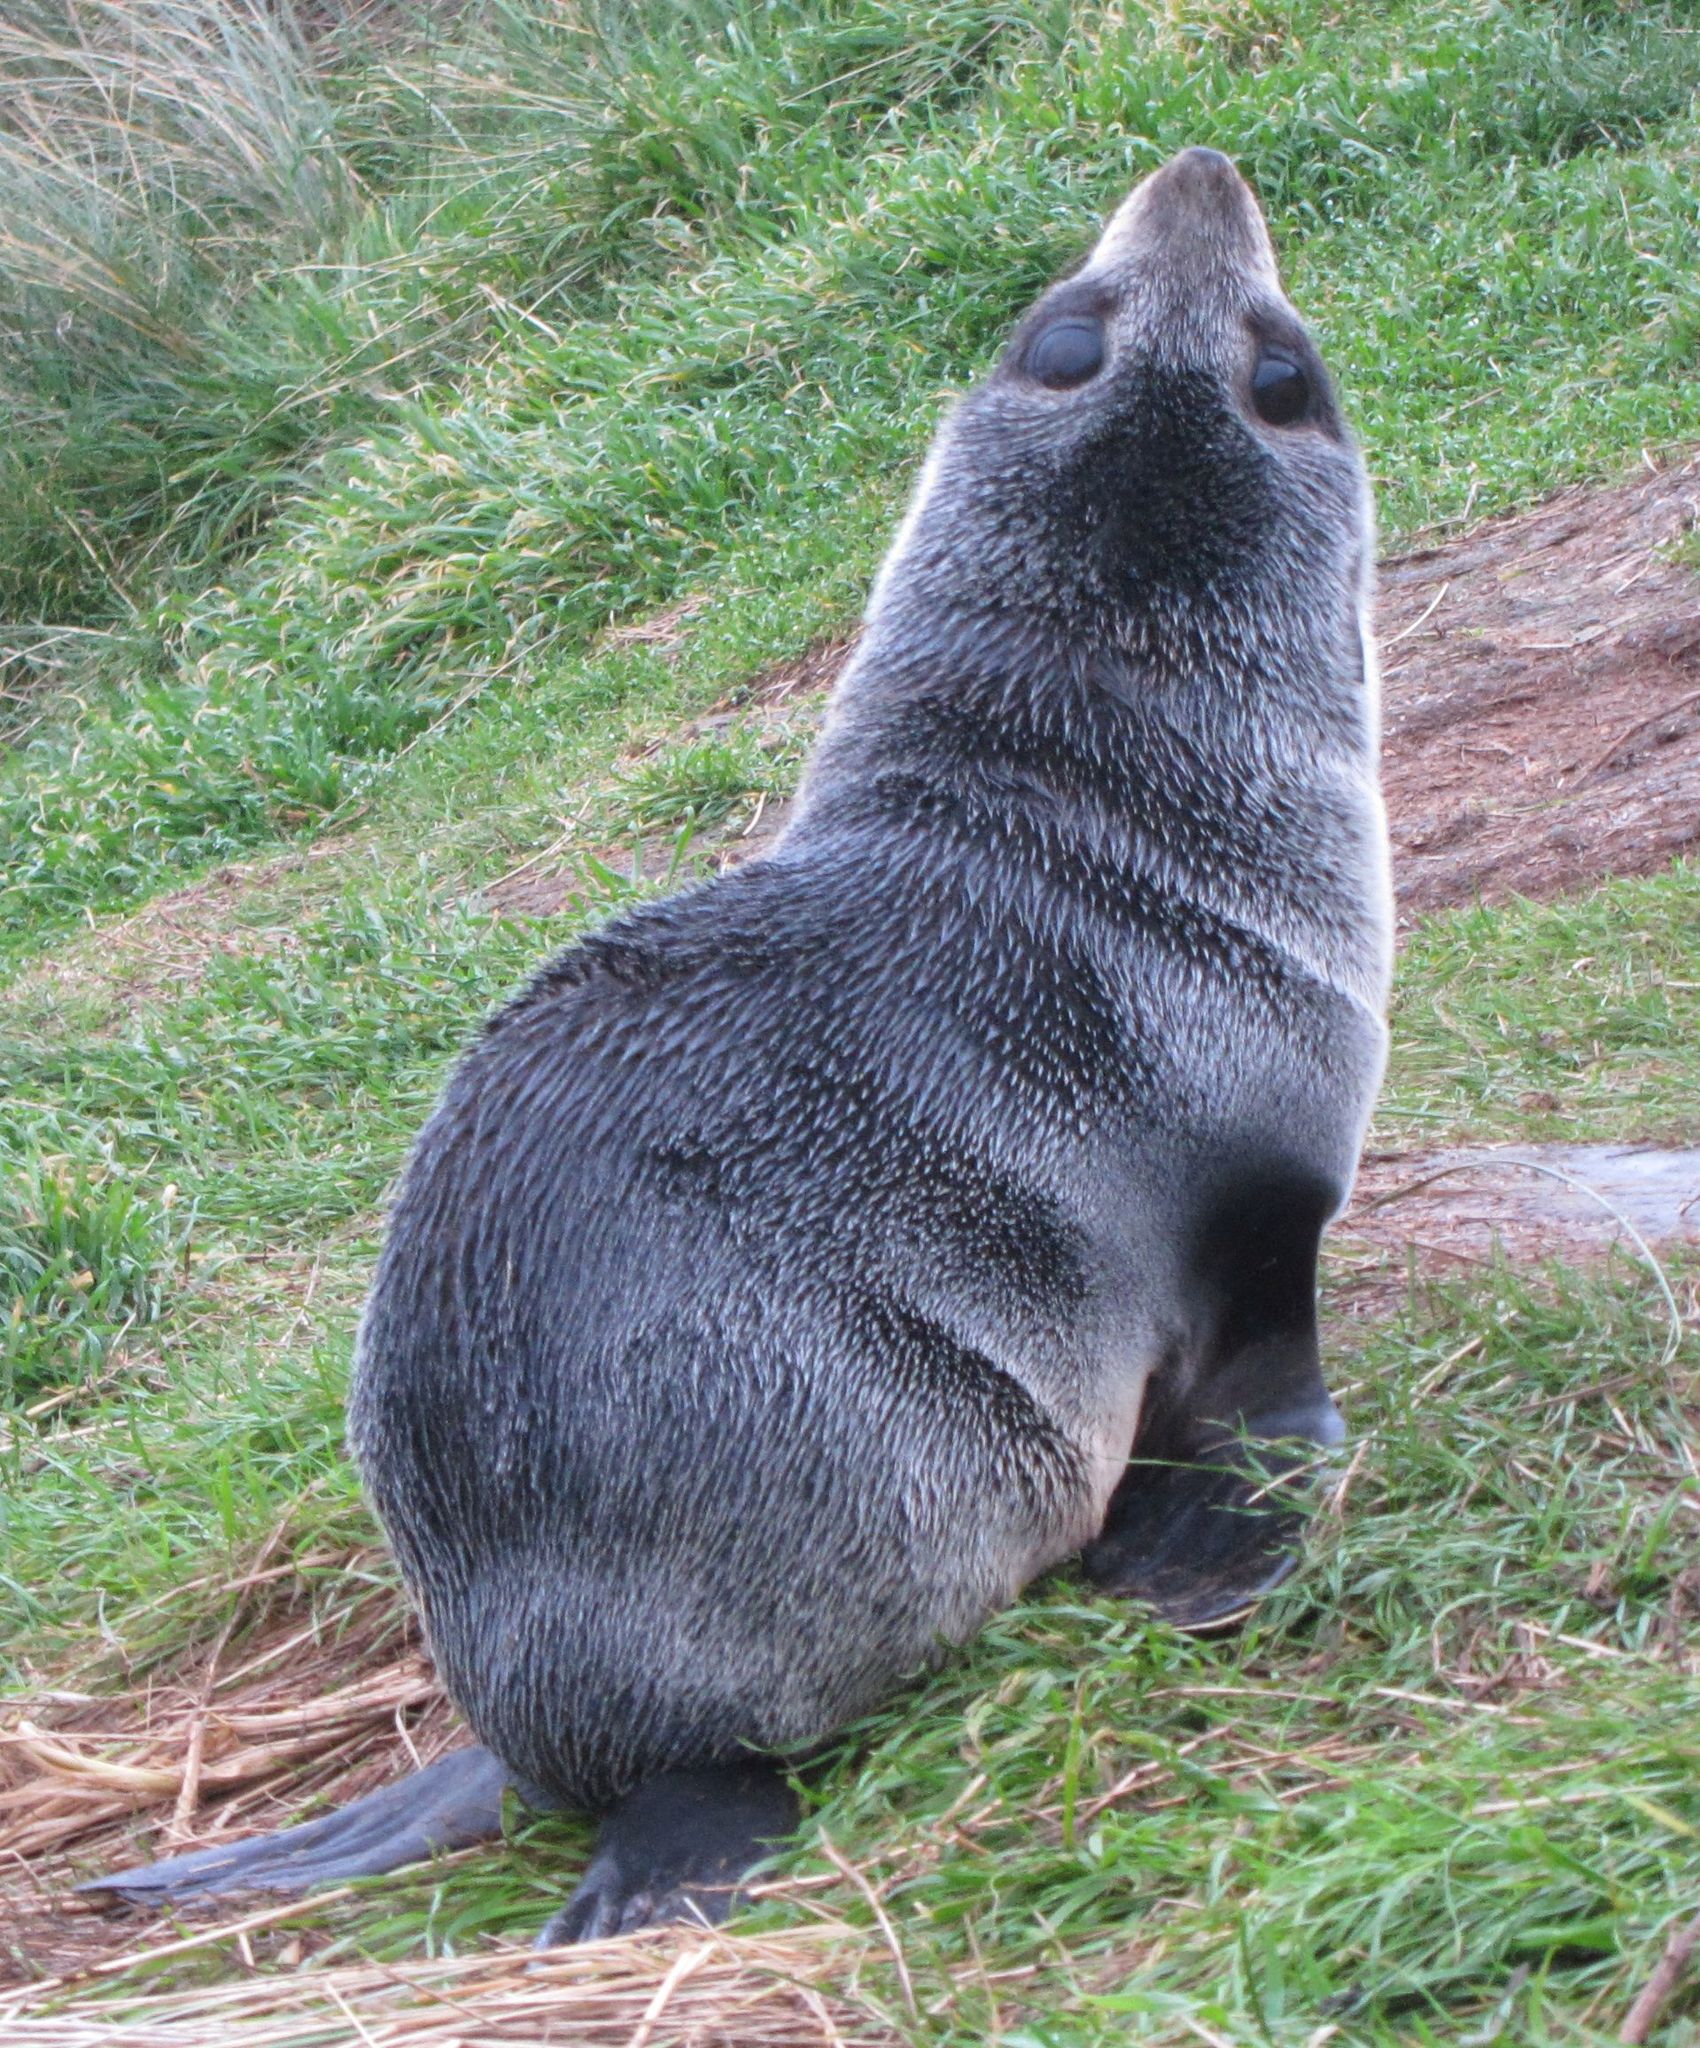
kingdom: Animalia
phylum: Chordata
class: Mammalia
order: Carnivora
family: Otariidae
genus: Arctocephalus
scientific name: Arctocephalus forsteri
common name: New zealand fur seal
